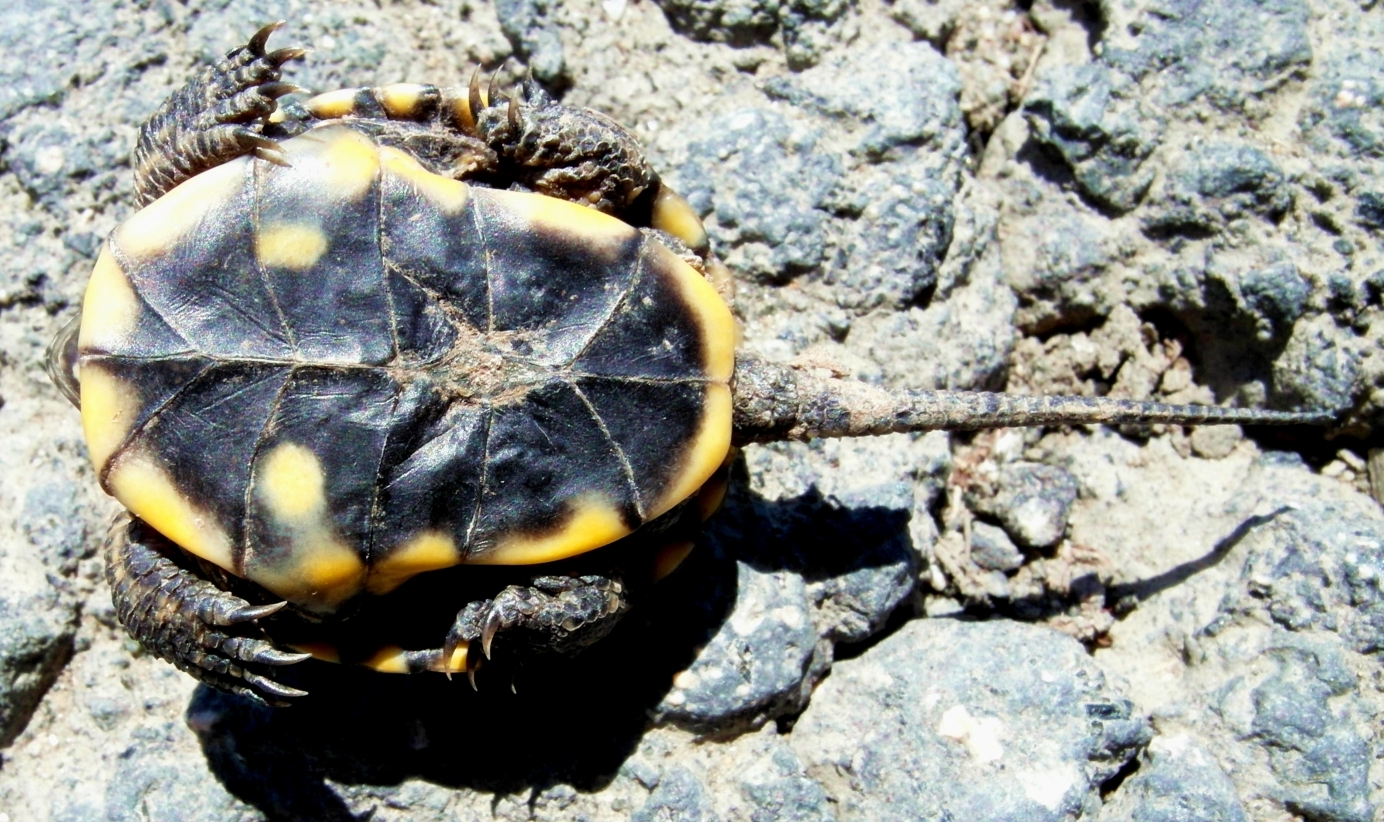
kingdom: Animalia
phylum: Chordata
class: Testudines
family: Emydidae
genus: Emys
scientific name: Emys orbicularis
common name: European pond turtle
